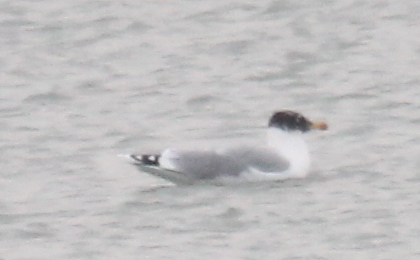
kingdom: Animalia
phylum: Chordata
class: Aves
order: Charadriiformes
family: Laridae
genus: Ichthyaetus
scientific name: Ichthyaetus ichthyaetus
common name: Pallas's gull
